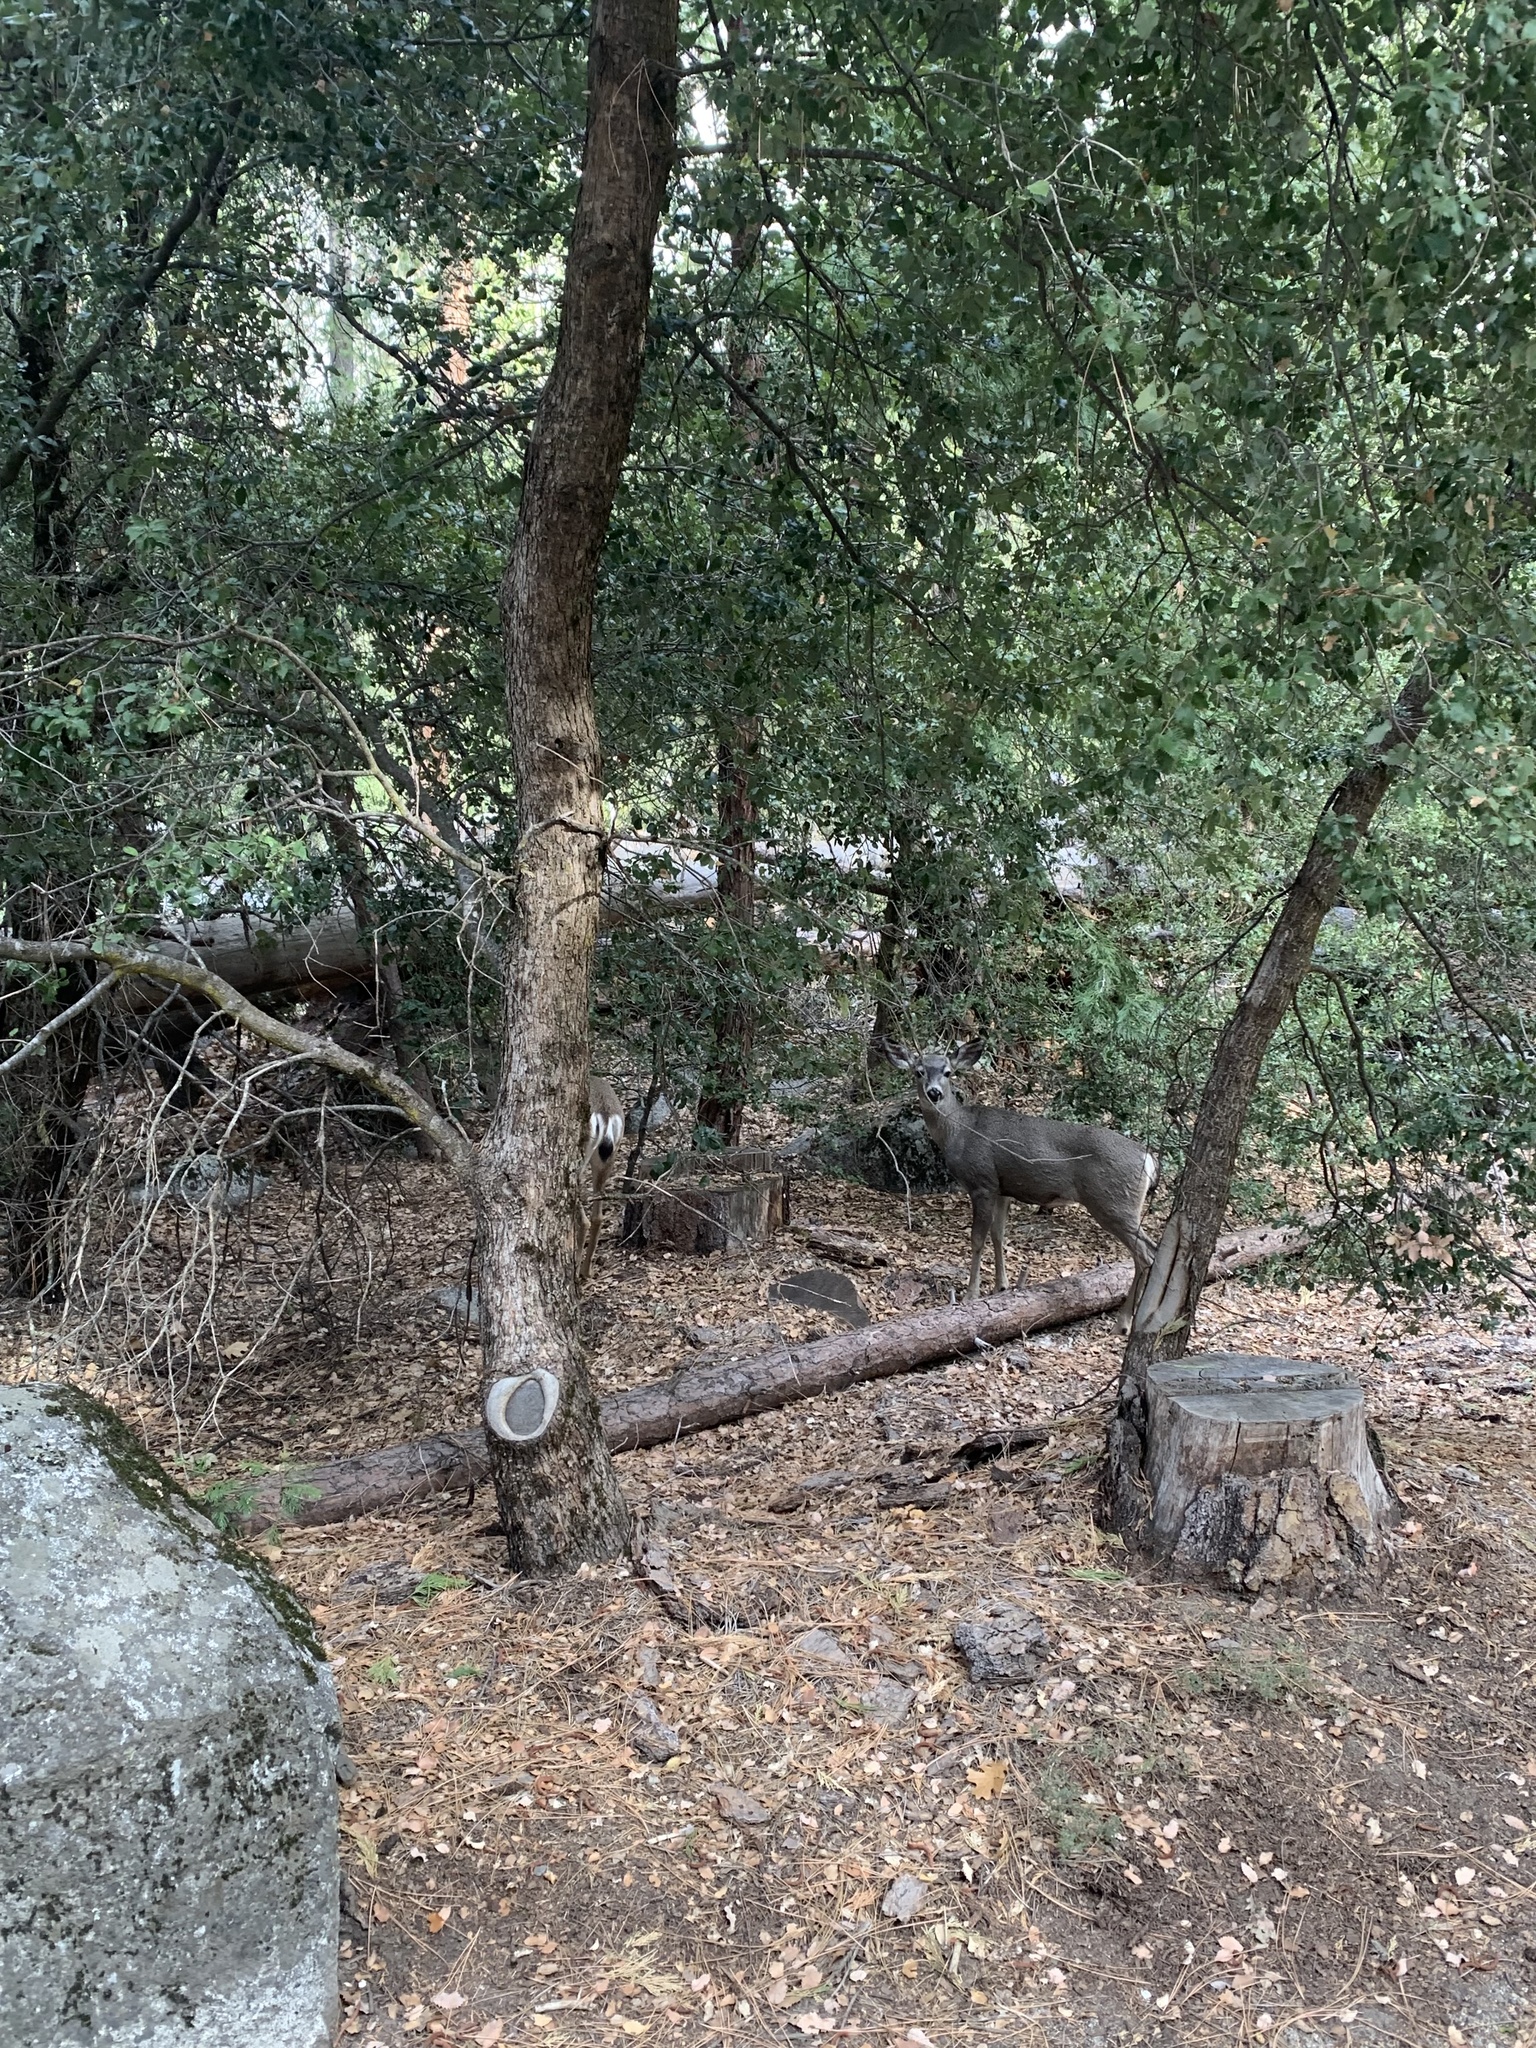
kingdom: Animalia
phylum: Chordata
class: Mammalia
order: Artiodactyla
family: Cervidae
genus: Odocoileus
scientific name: Odocoileus hemionus
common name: Mule deer
